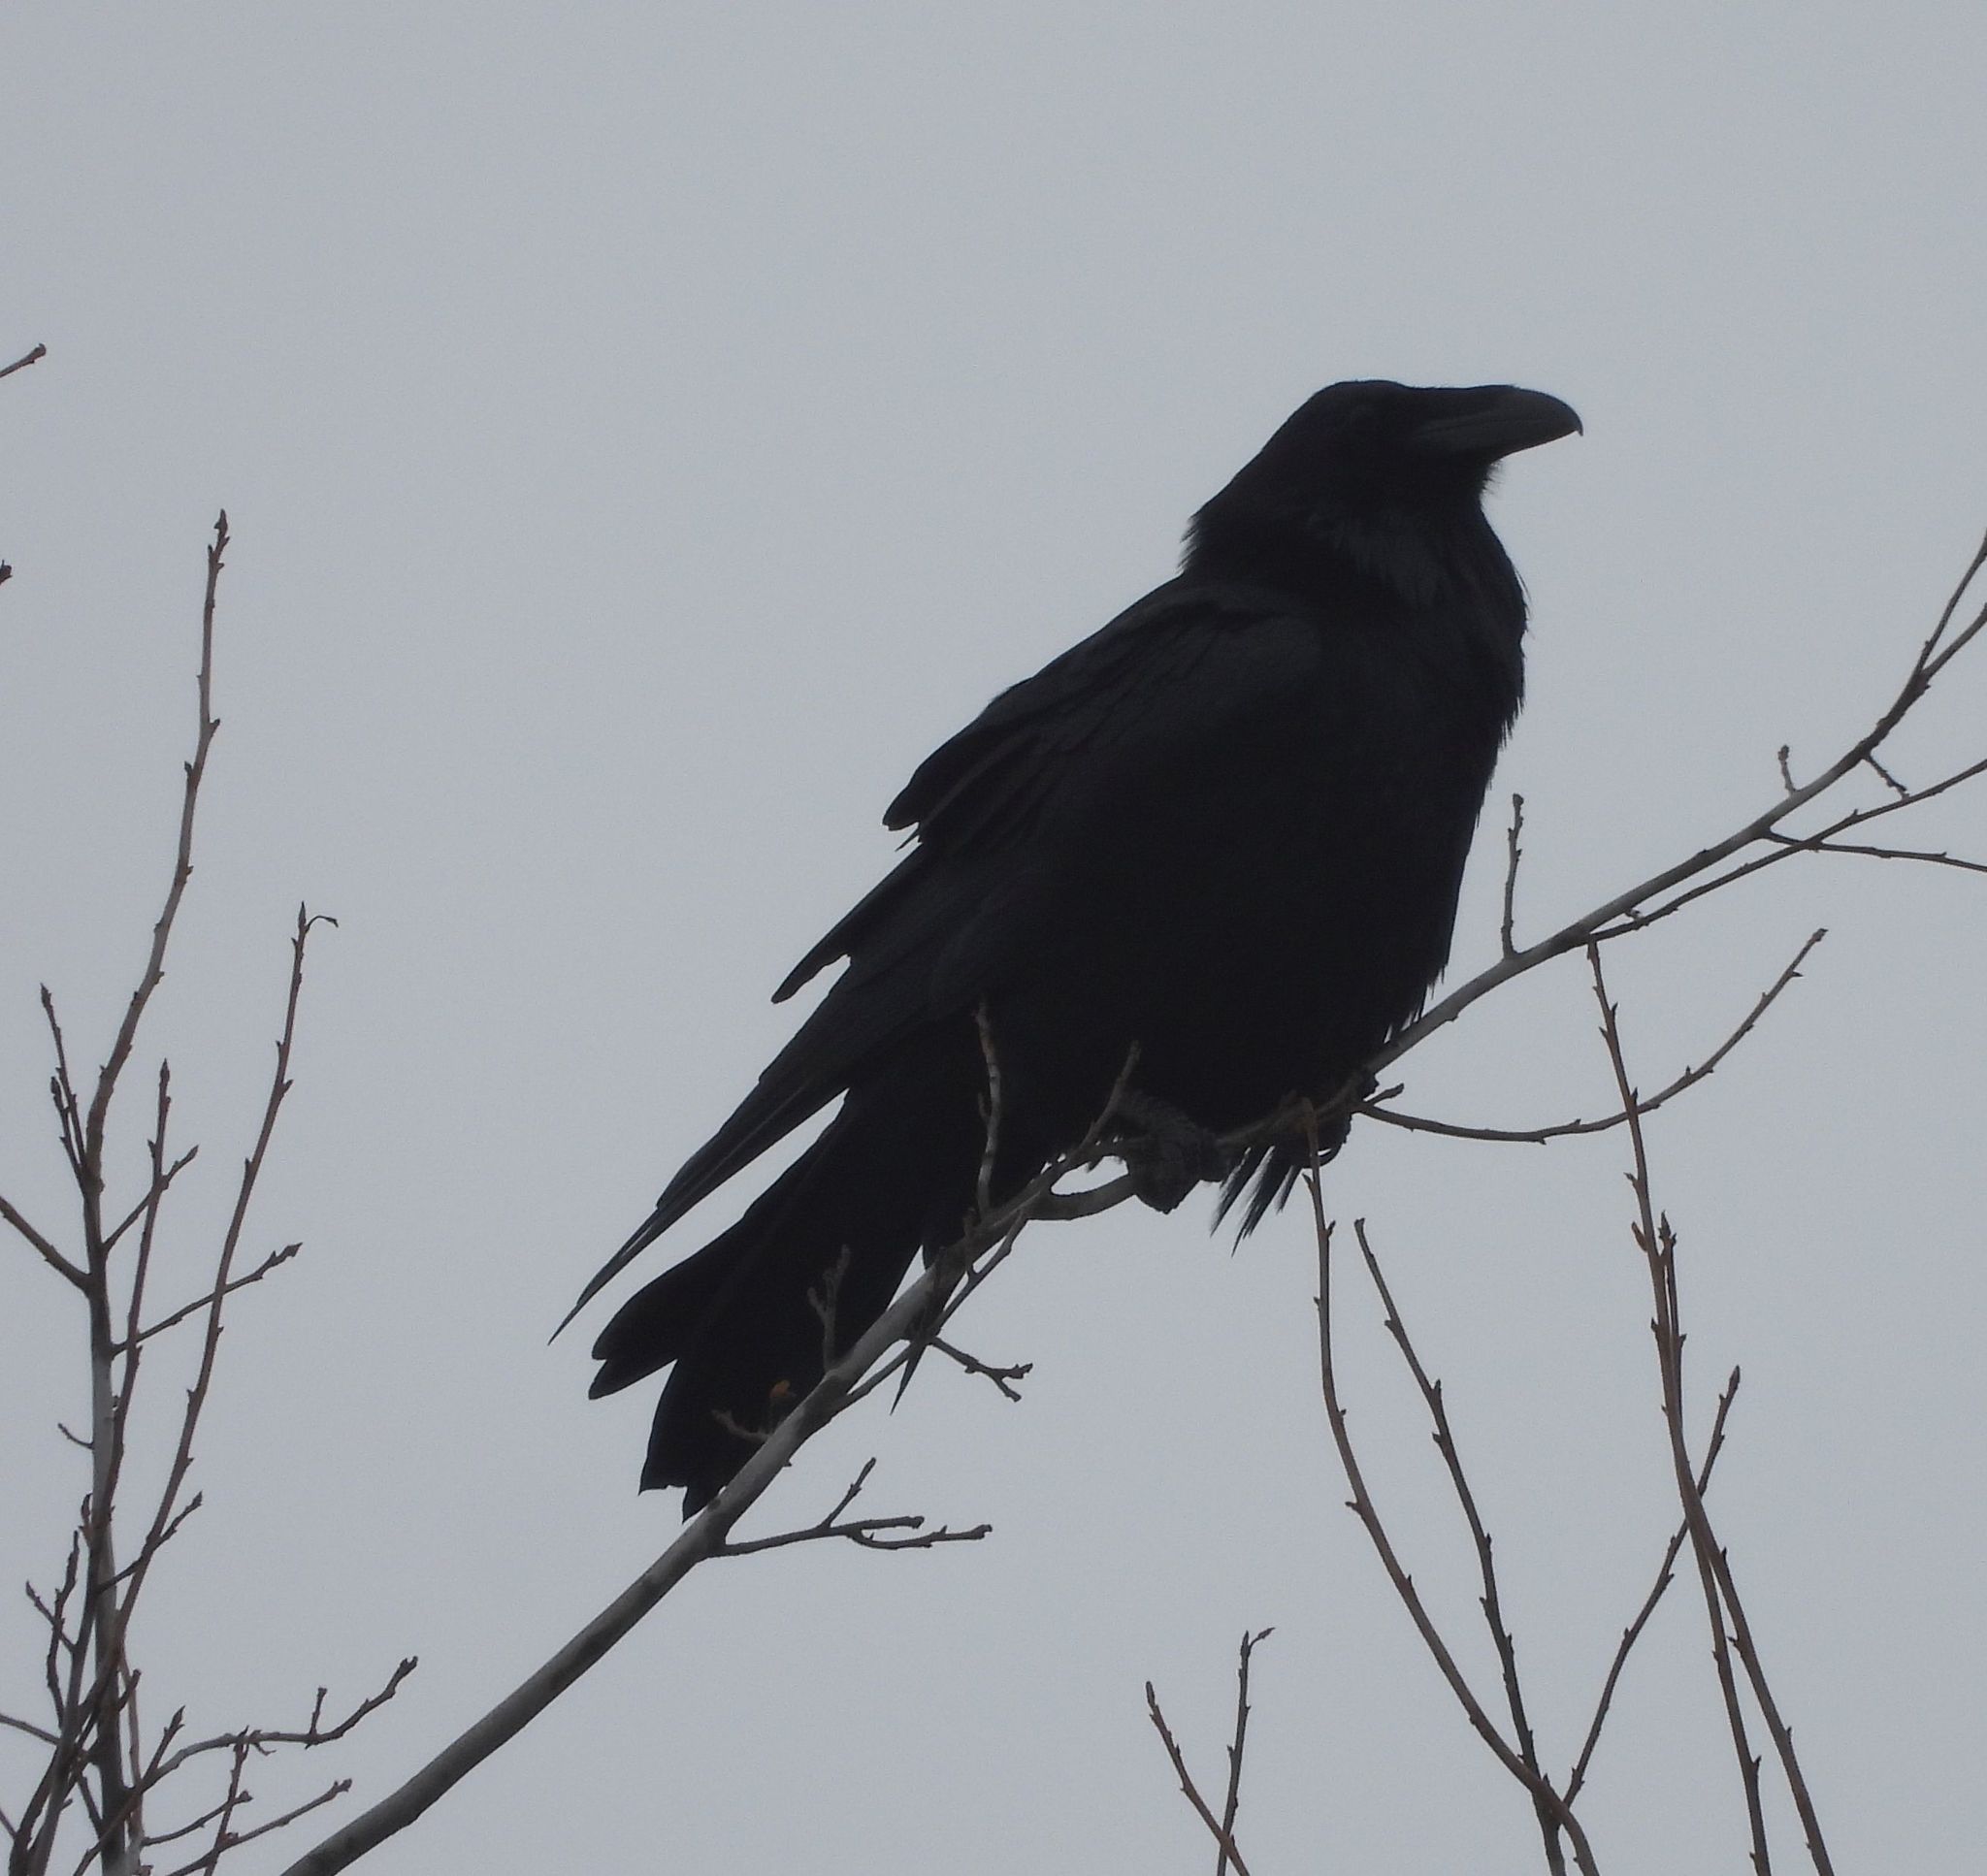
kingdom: Animalia
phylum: Chordata
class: Aves
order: Passeriformes
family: Corvidae
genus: Corvus
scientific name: Corvus corax
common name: Common raven
